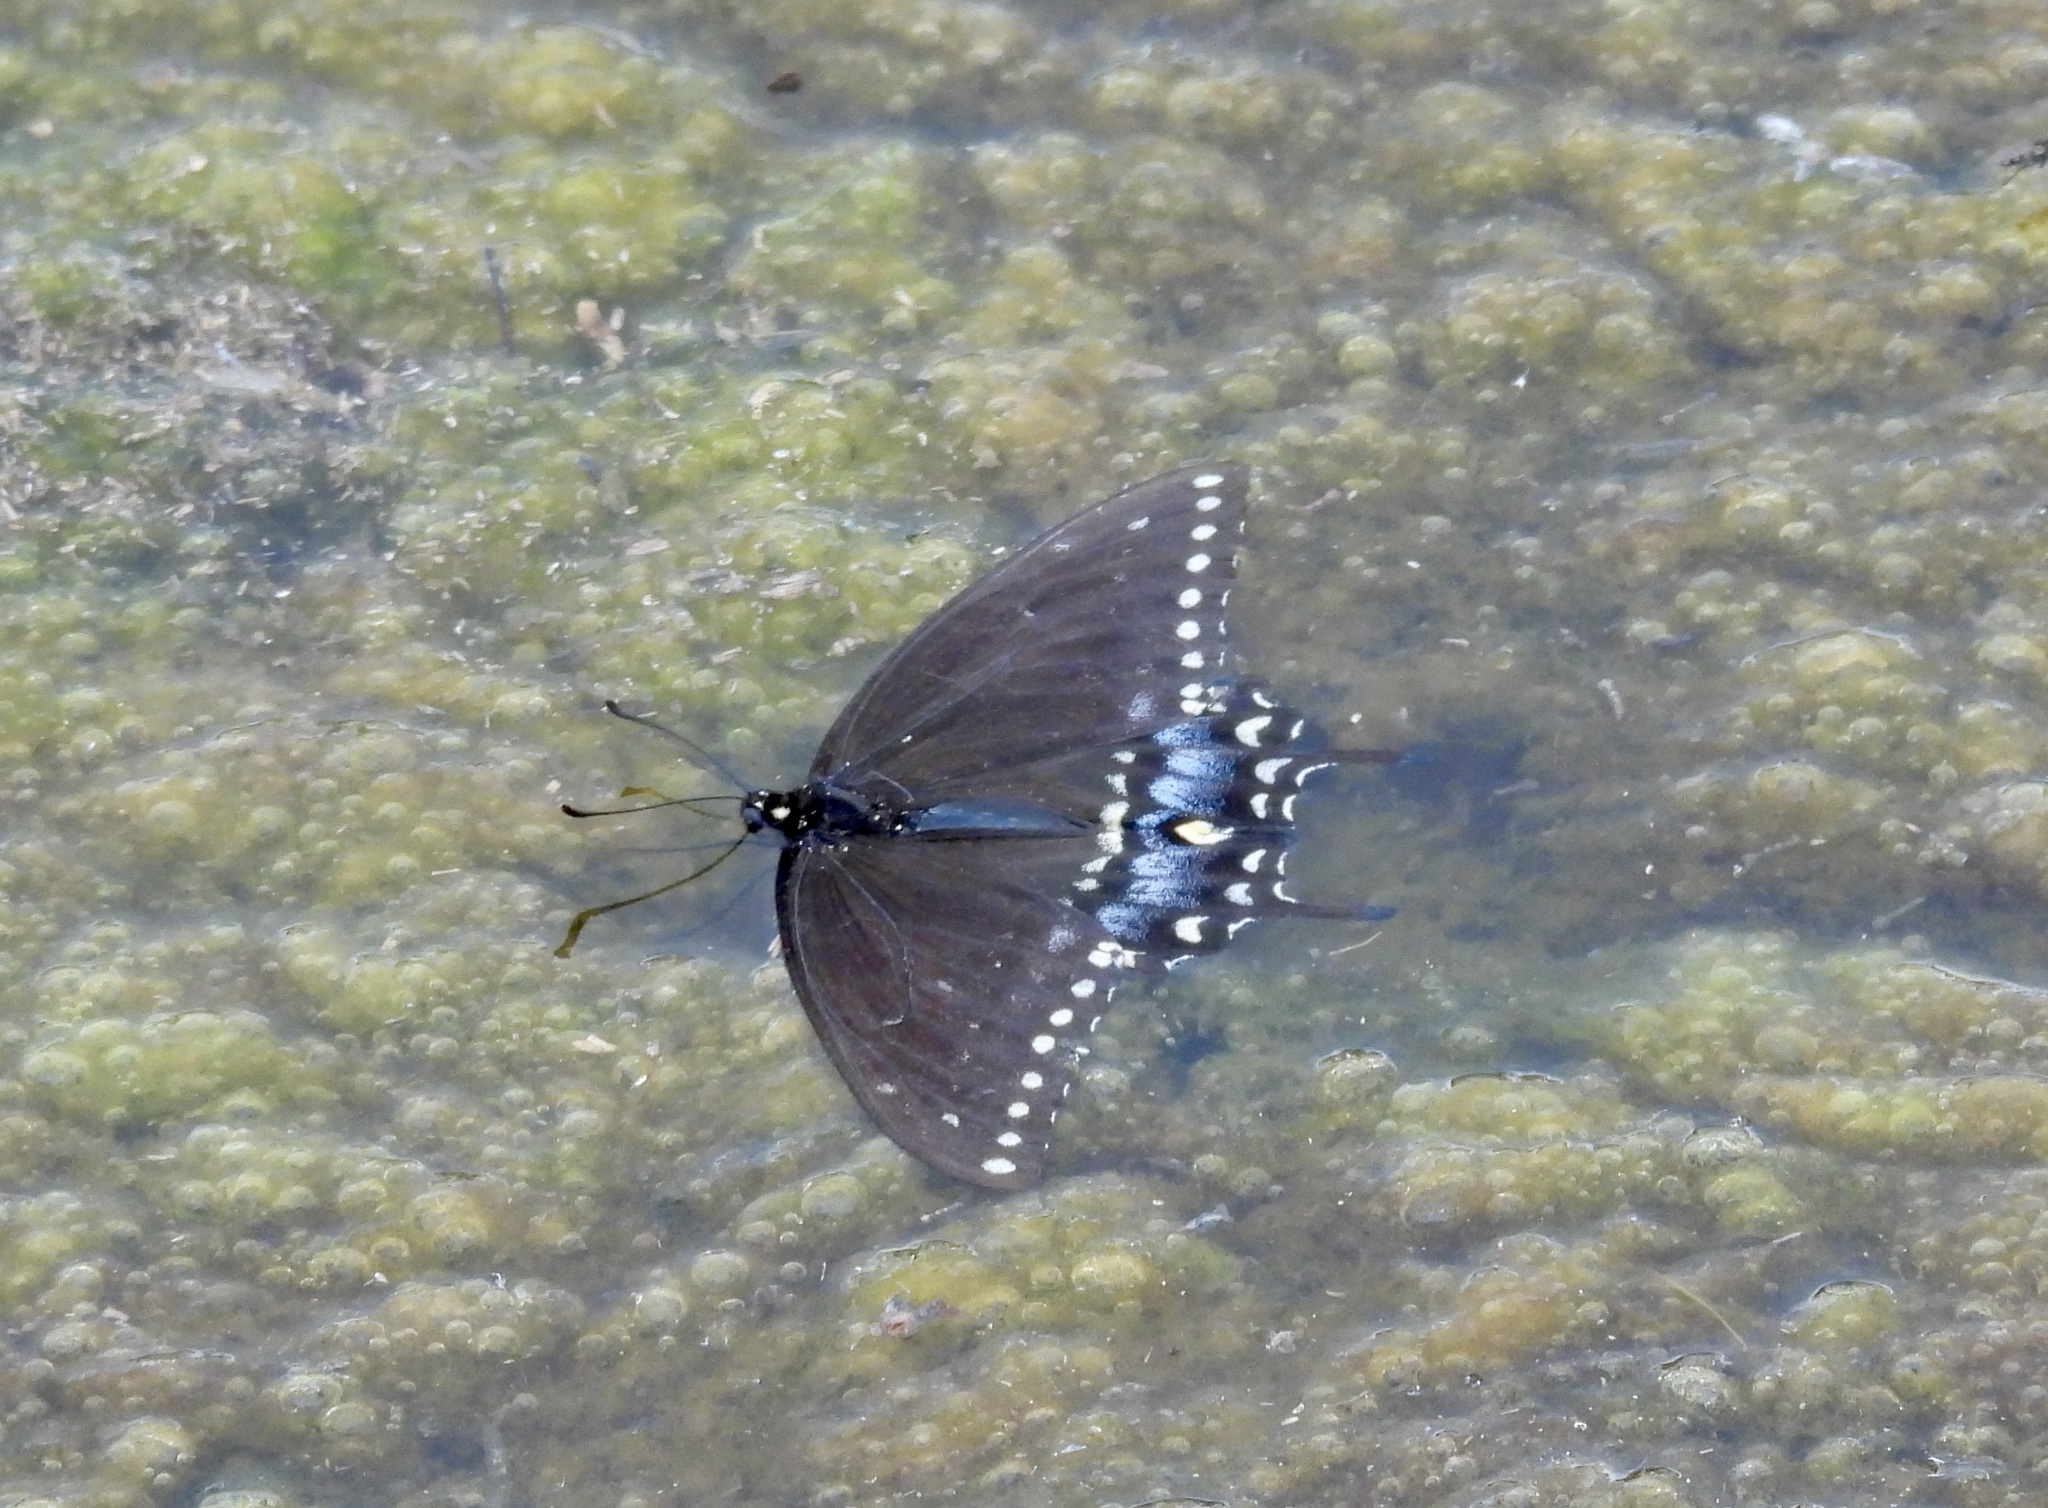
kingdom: Animalia
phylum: Arthropoda
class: Insecta
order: Lepidoptera
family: Papilionidae
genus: Papilio
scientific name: Papilio polyxenes
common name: Black swallowtail
